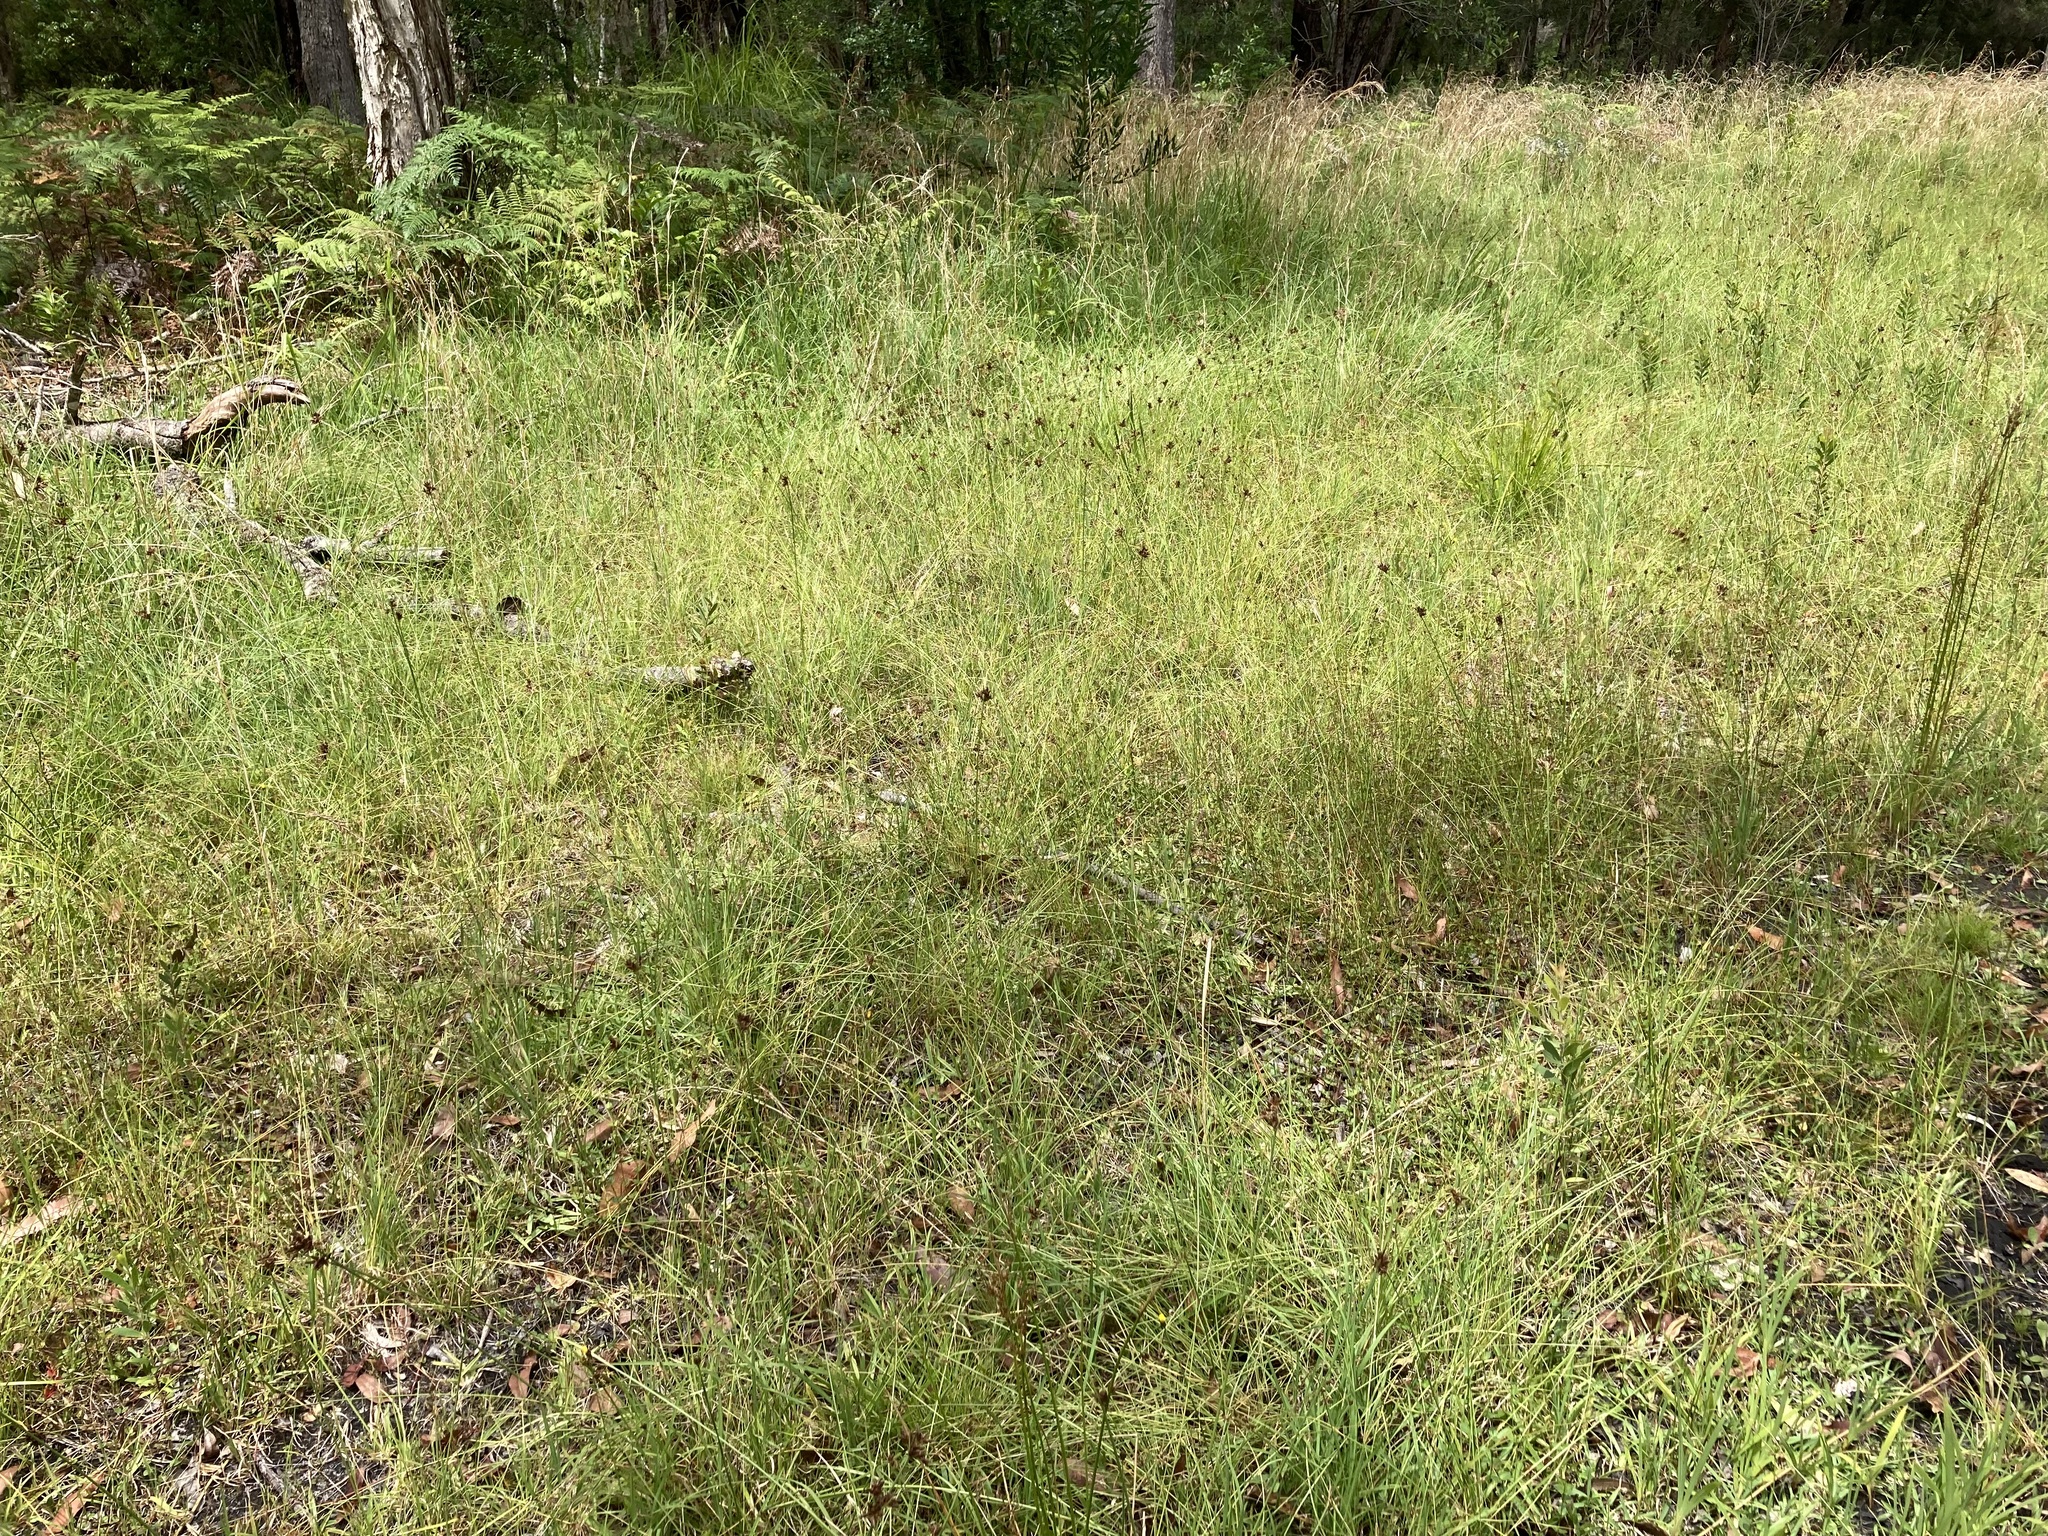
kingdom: Plantae
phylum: Tracheophyta
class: Liliopsida
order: Poales
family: Cyperaceae
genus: Fimbristylis
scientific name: Fimbristylis ferruginea
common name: West indian fimbry
